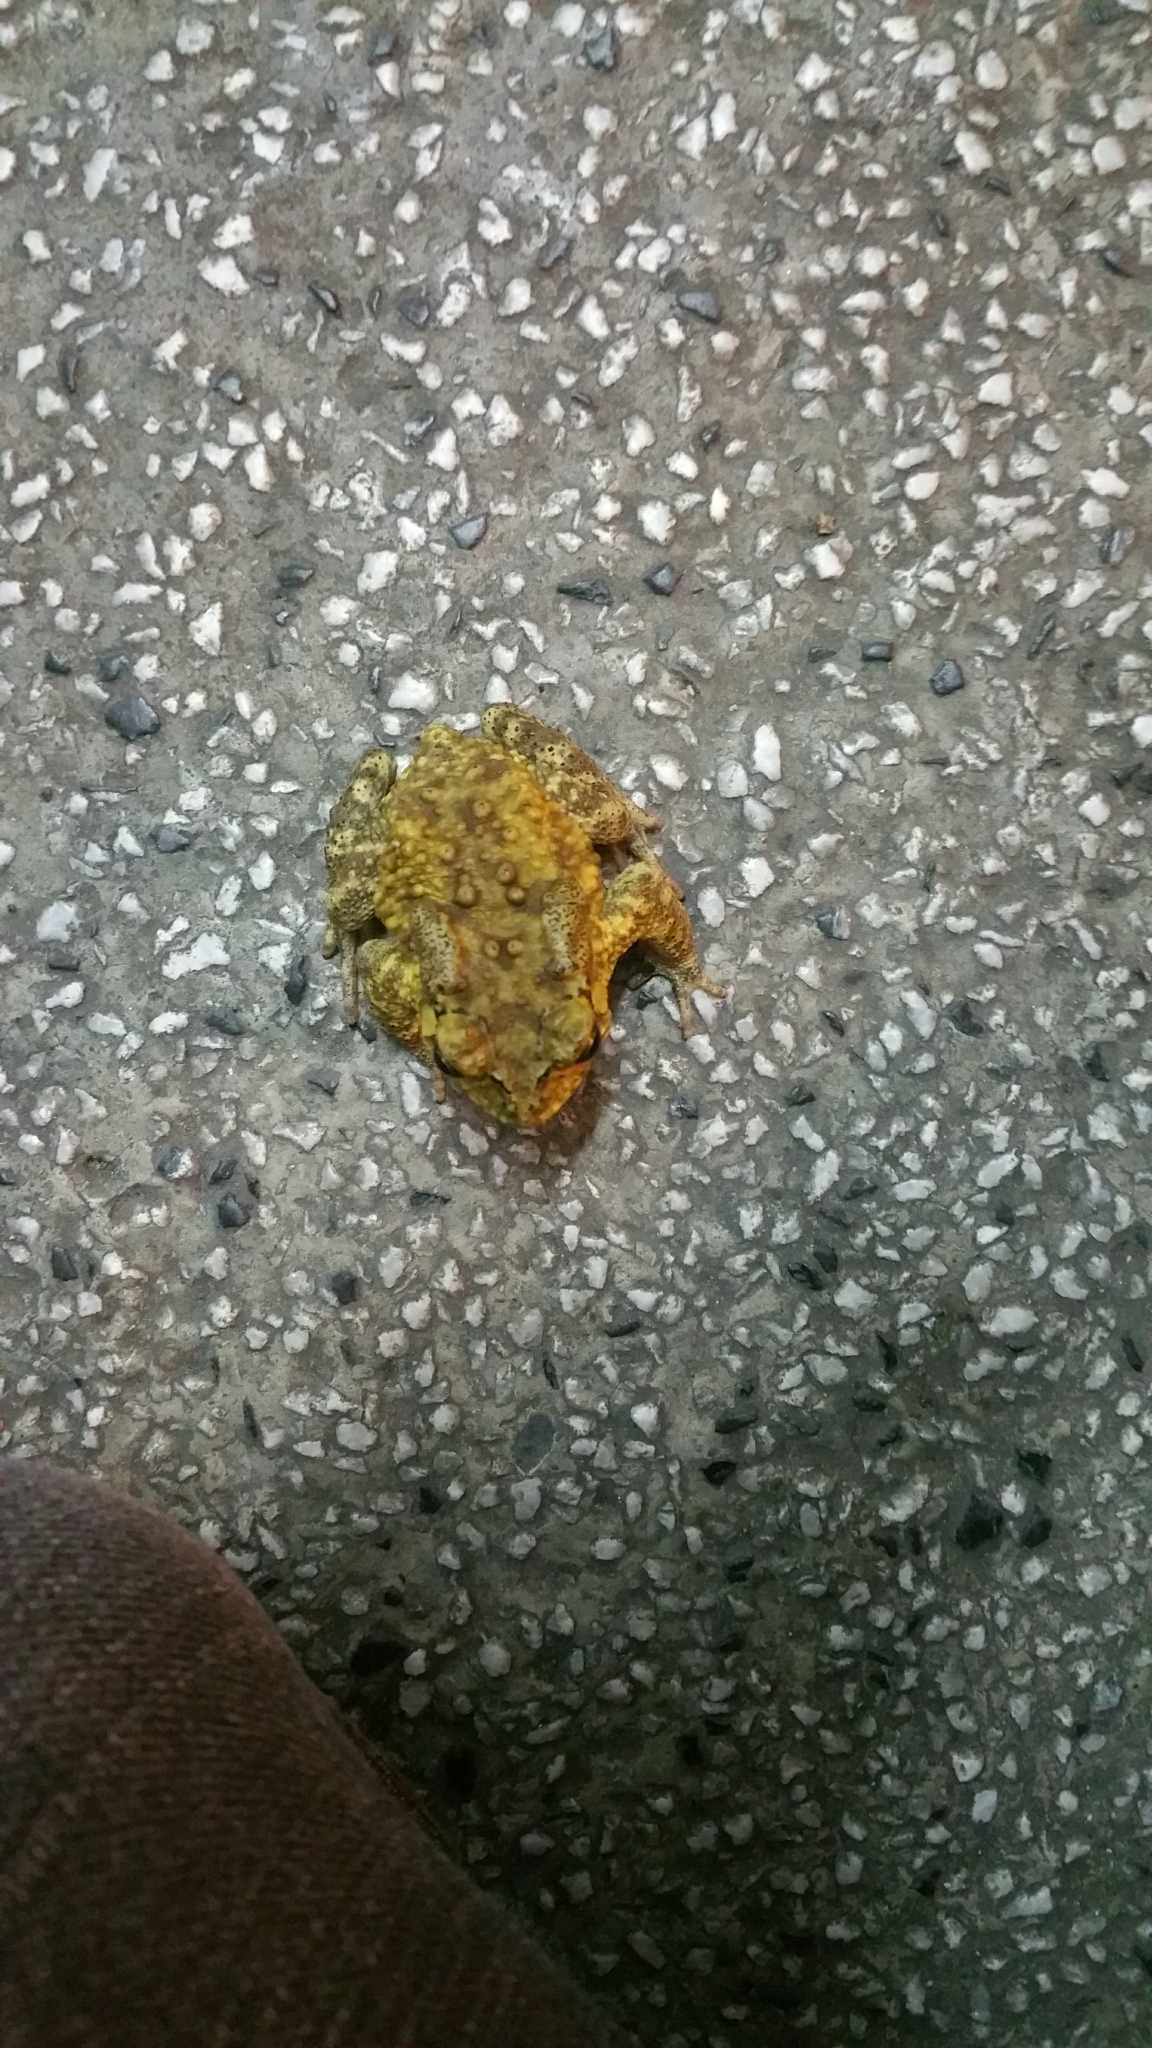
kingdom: Animalia
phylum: Chordata
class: Amphibia
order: Anura
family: Bufonidae
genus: Duttaphrynus
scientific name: Duttaphrynus melanostictus
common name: Common sunda toad
